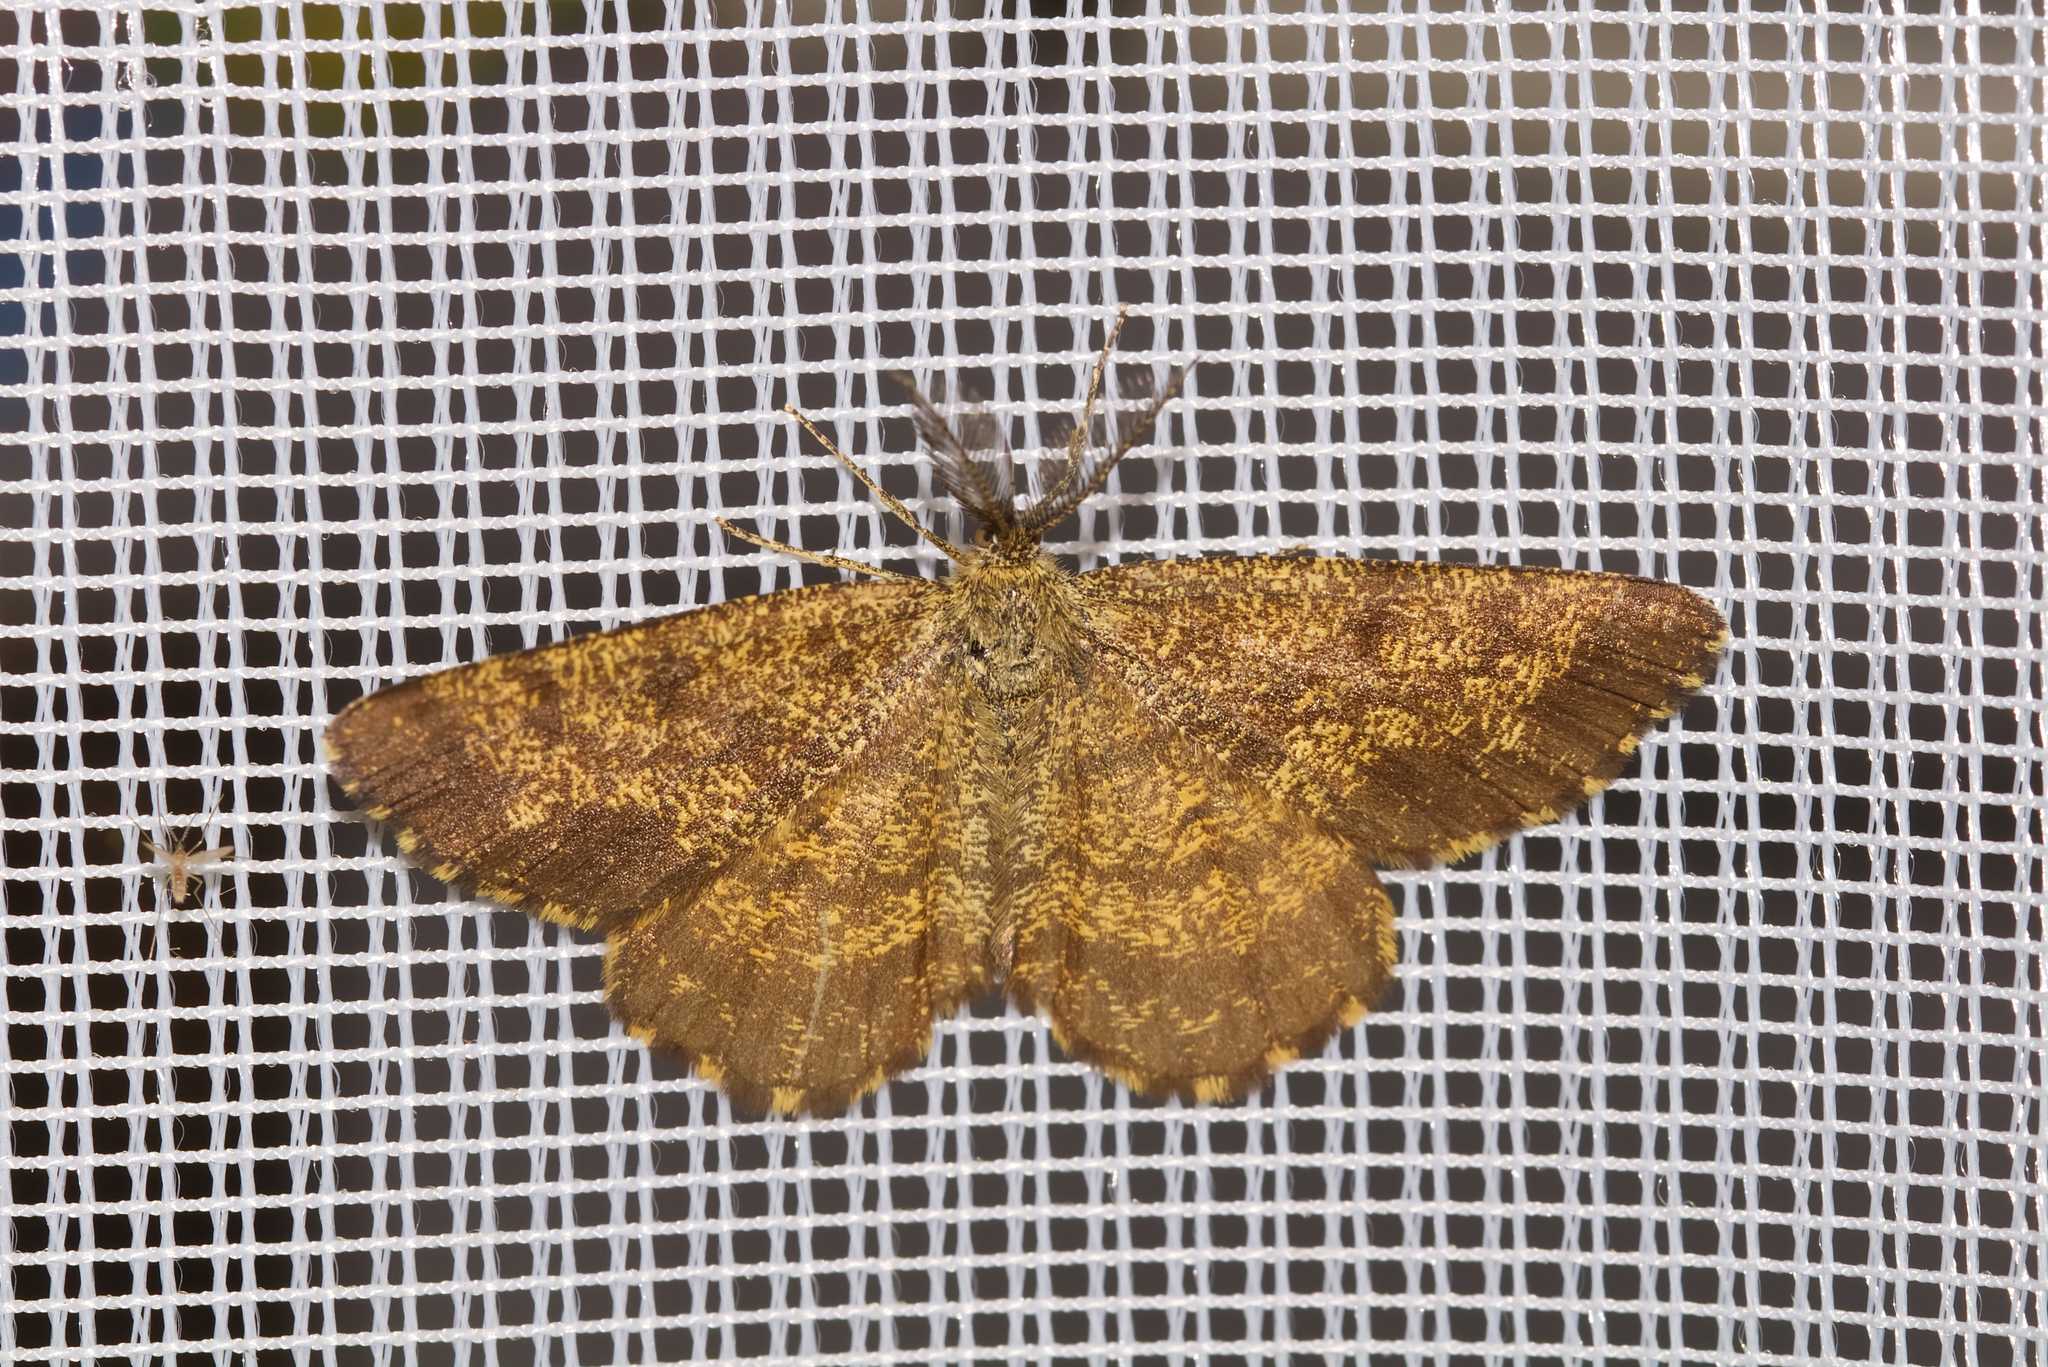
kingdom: Animalia
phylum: Arthropoda
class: Insecta
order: Lepidoptera
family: Geometridae
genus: Ematurga
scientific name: Ematurga atomaria
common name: Common heath
